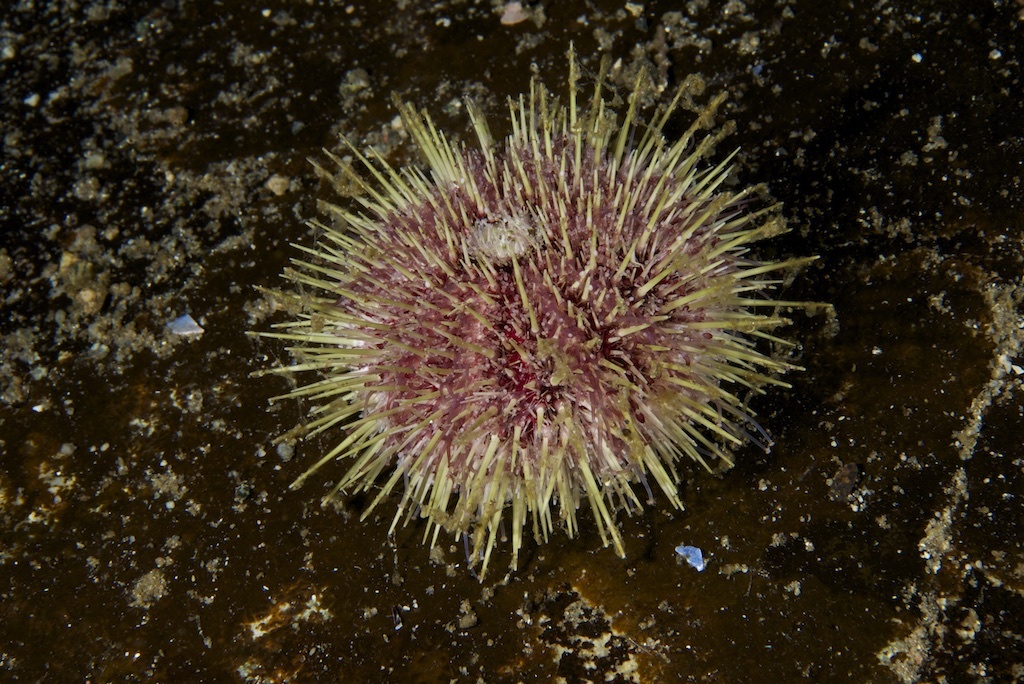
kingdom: Animalia
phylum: Echinodermata
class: Echinoidea
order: Camarodonta
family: Strongylocentrotidae
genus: Strongylocentrotus
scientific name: Strongylocentrotus droebachiensis
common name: Northern sea urchin
